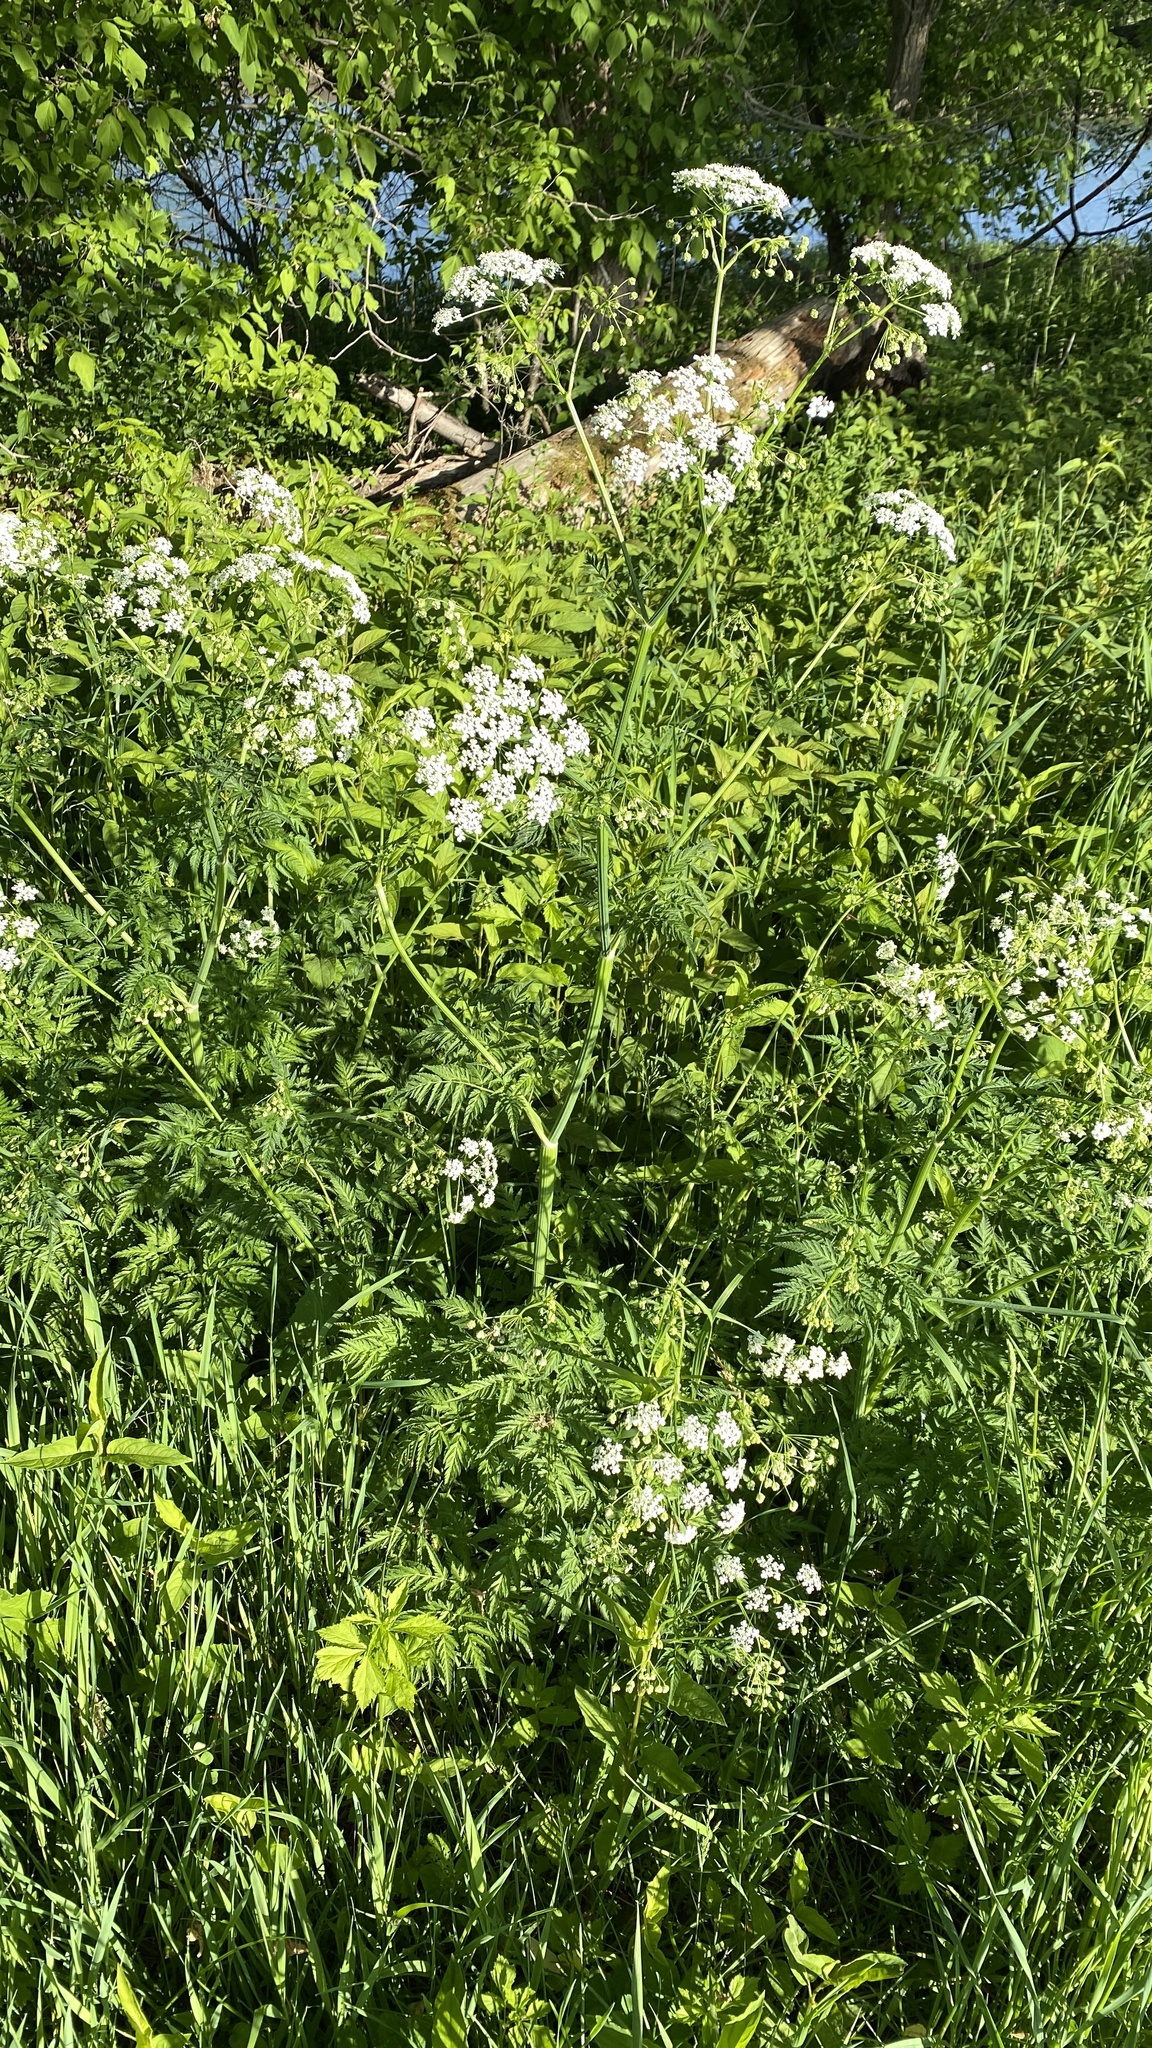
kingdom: Plantae
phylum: Tracheophyta
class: Magnoliopsida
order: Apiales
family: Apiaceae
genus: Anthriscus
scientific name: Anthriscus sylvestris
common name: Cow parsley
